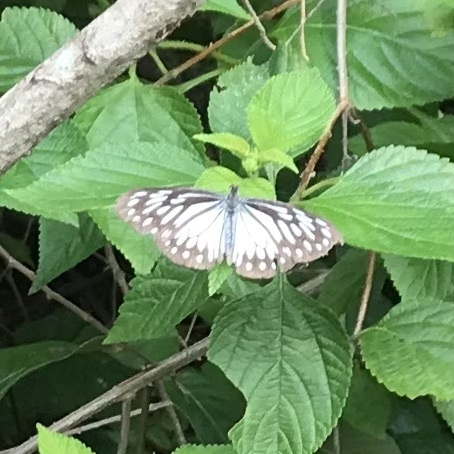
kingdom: Animalia
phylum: Arthropoda
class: Insecta
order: Lepidoptera
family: Nymphalidae
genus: Ideopsis
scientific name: Ideopsis juventa
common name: Grey glassy tiger
